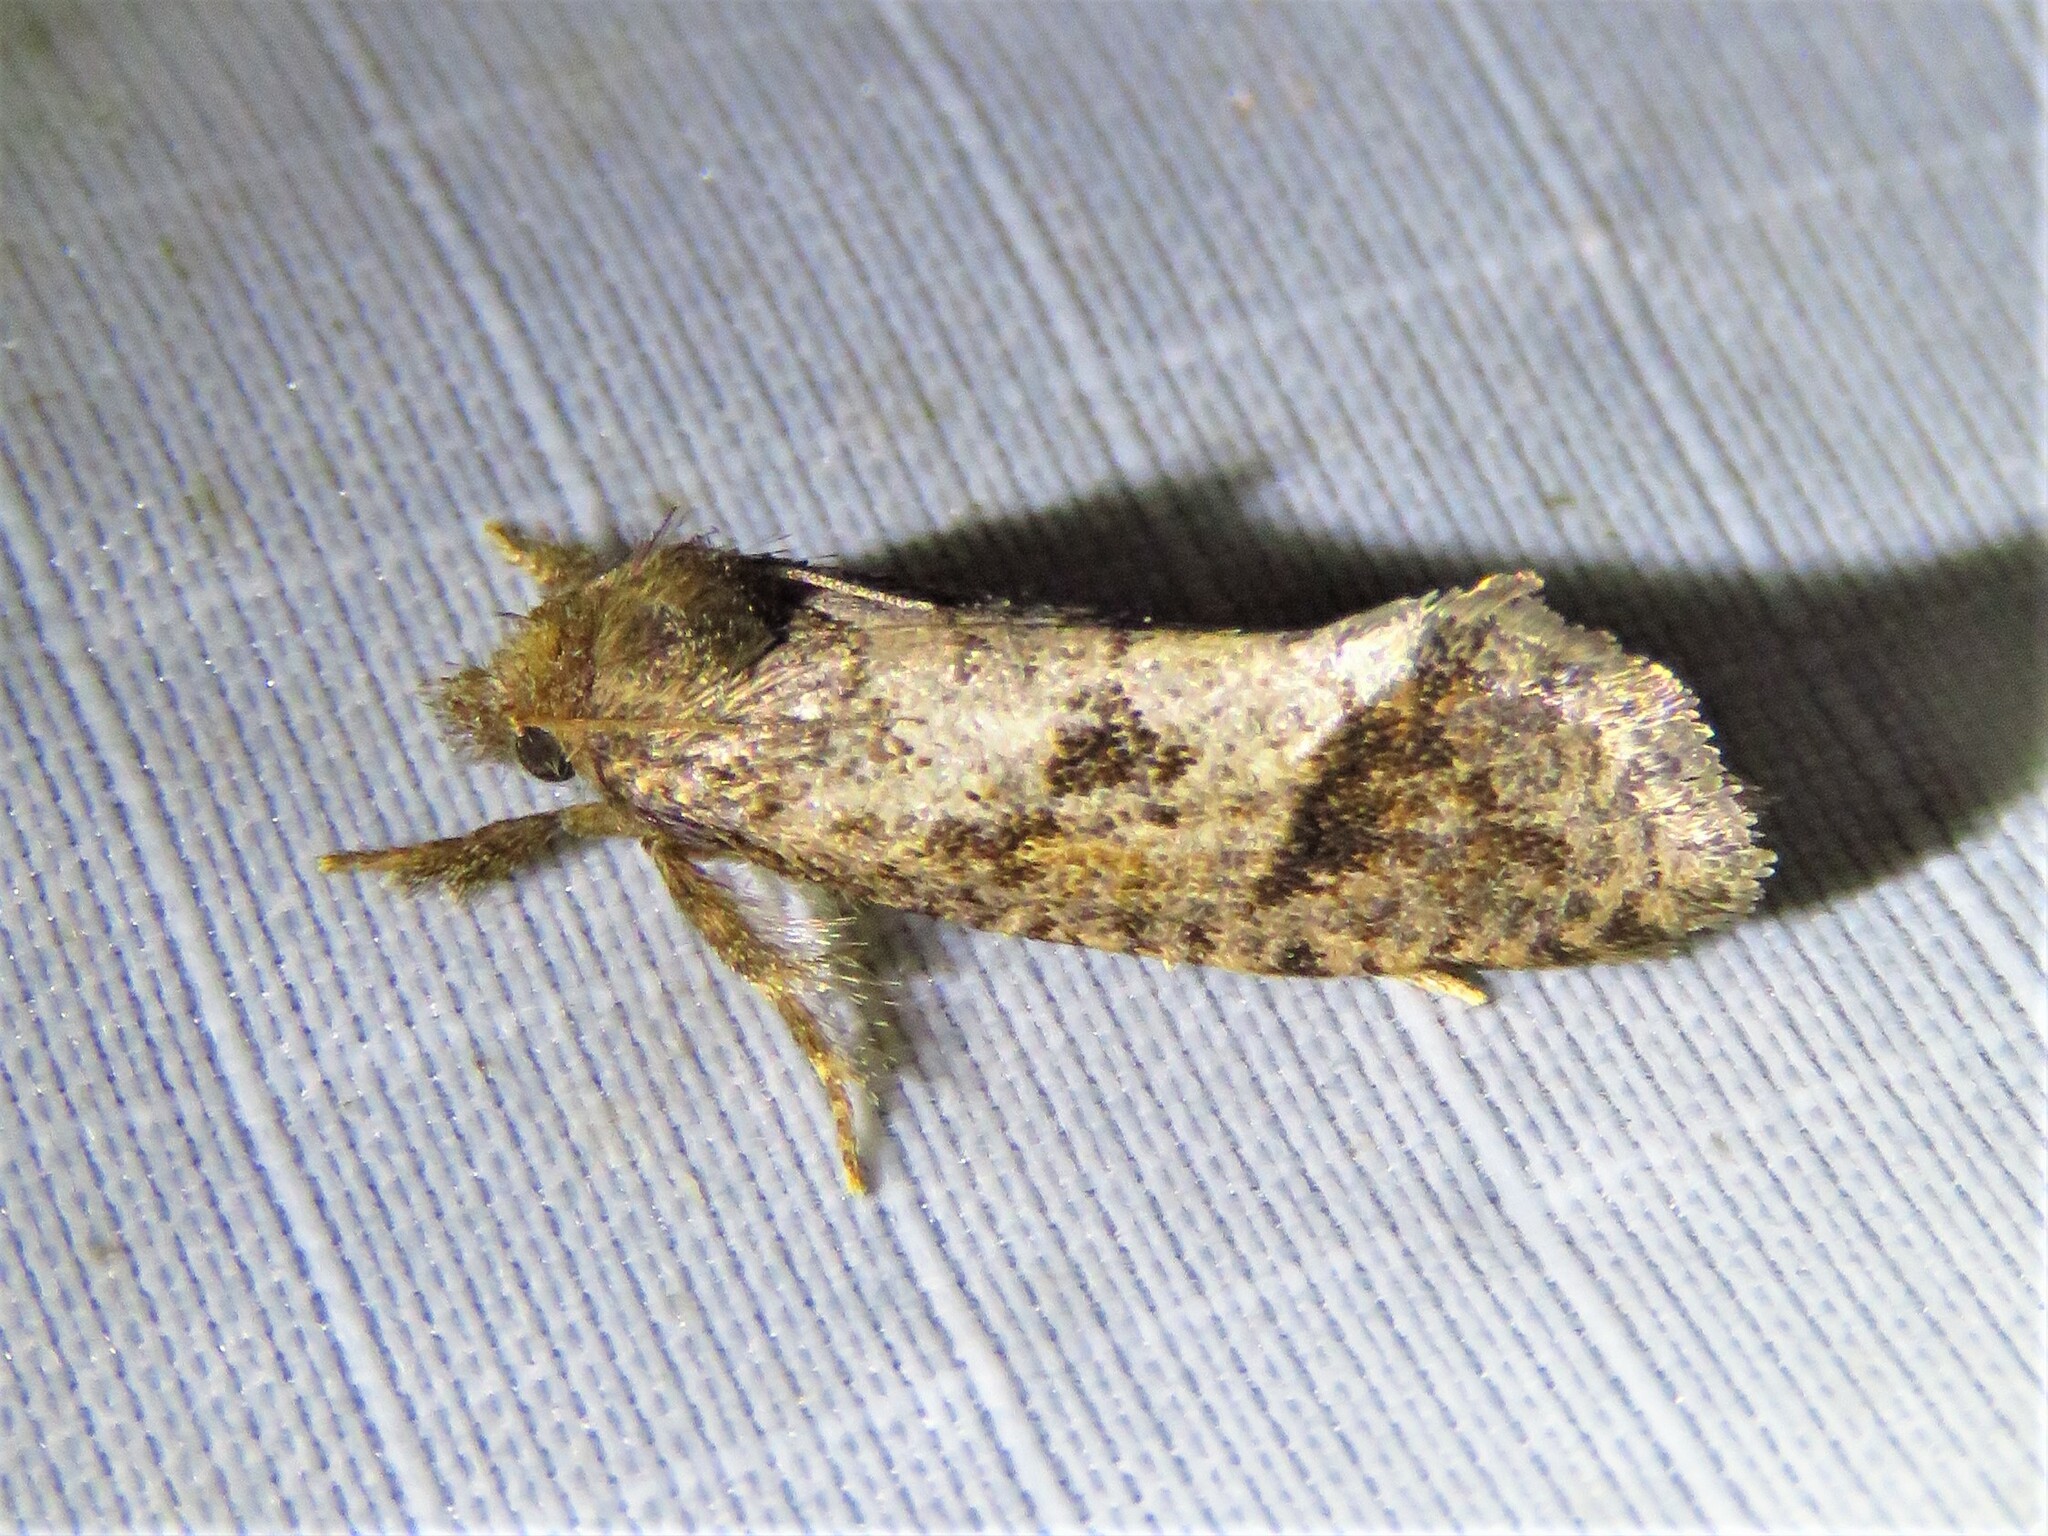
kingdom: Animalia
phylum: Arthropoda
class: Insecta
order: Lepidoptera
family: Tineidae
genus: Acrolophus
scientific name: Acrolophus texanella
